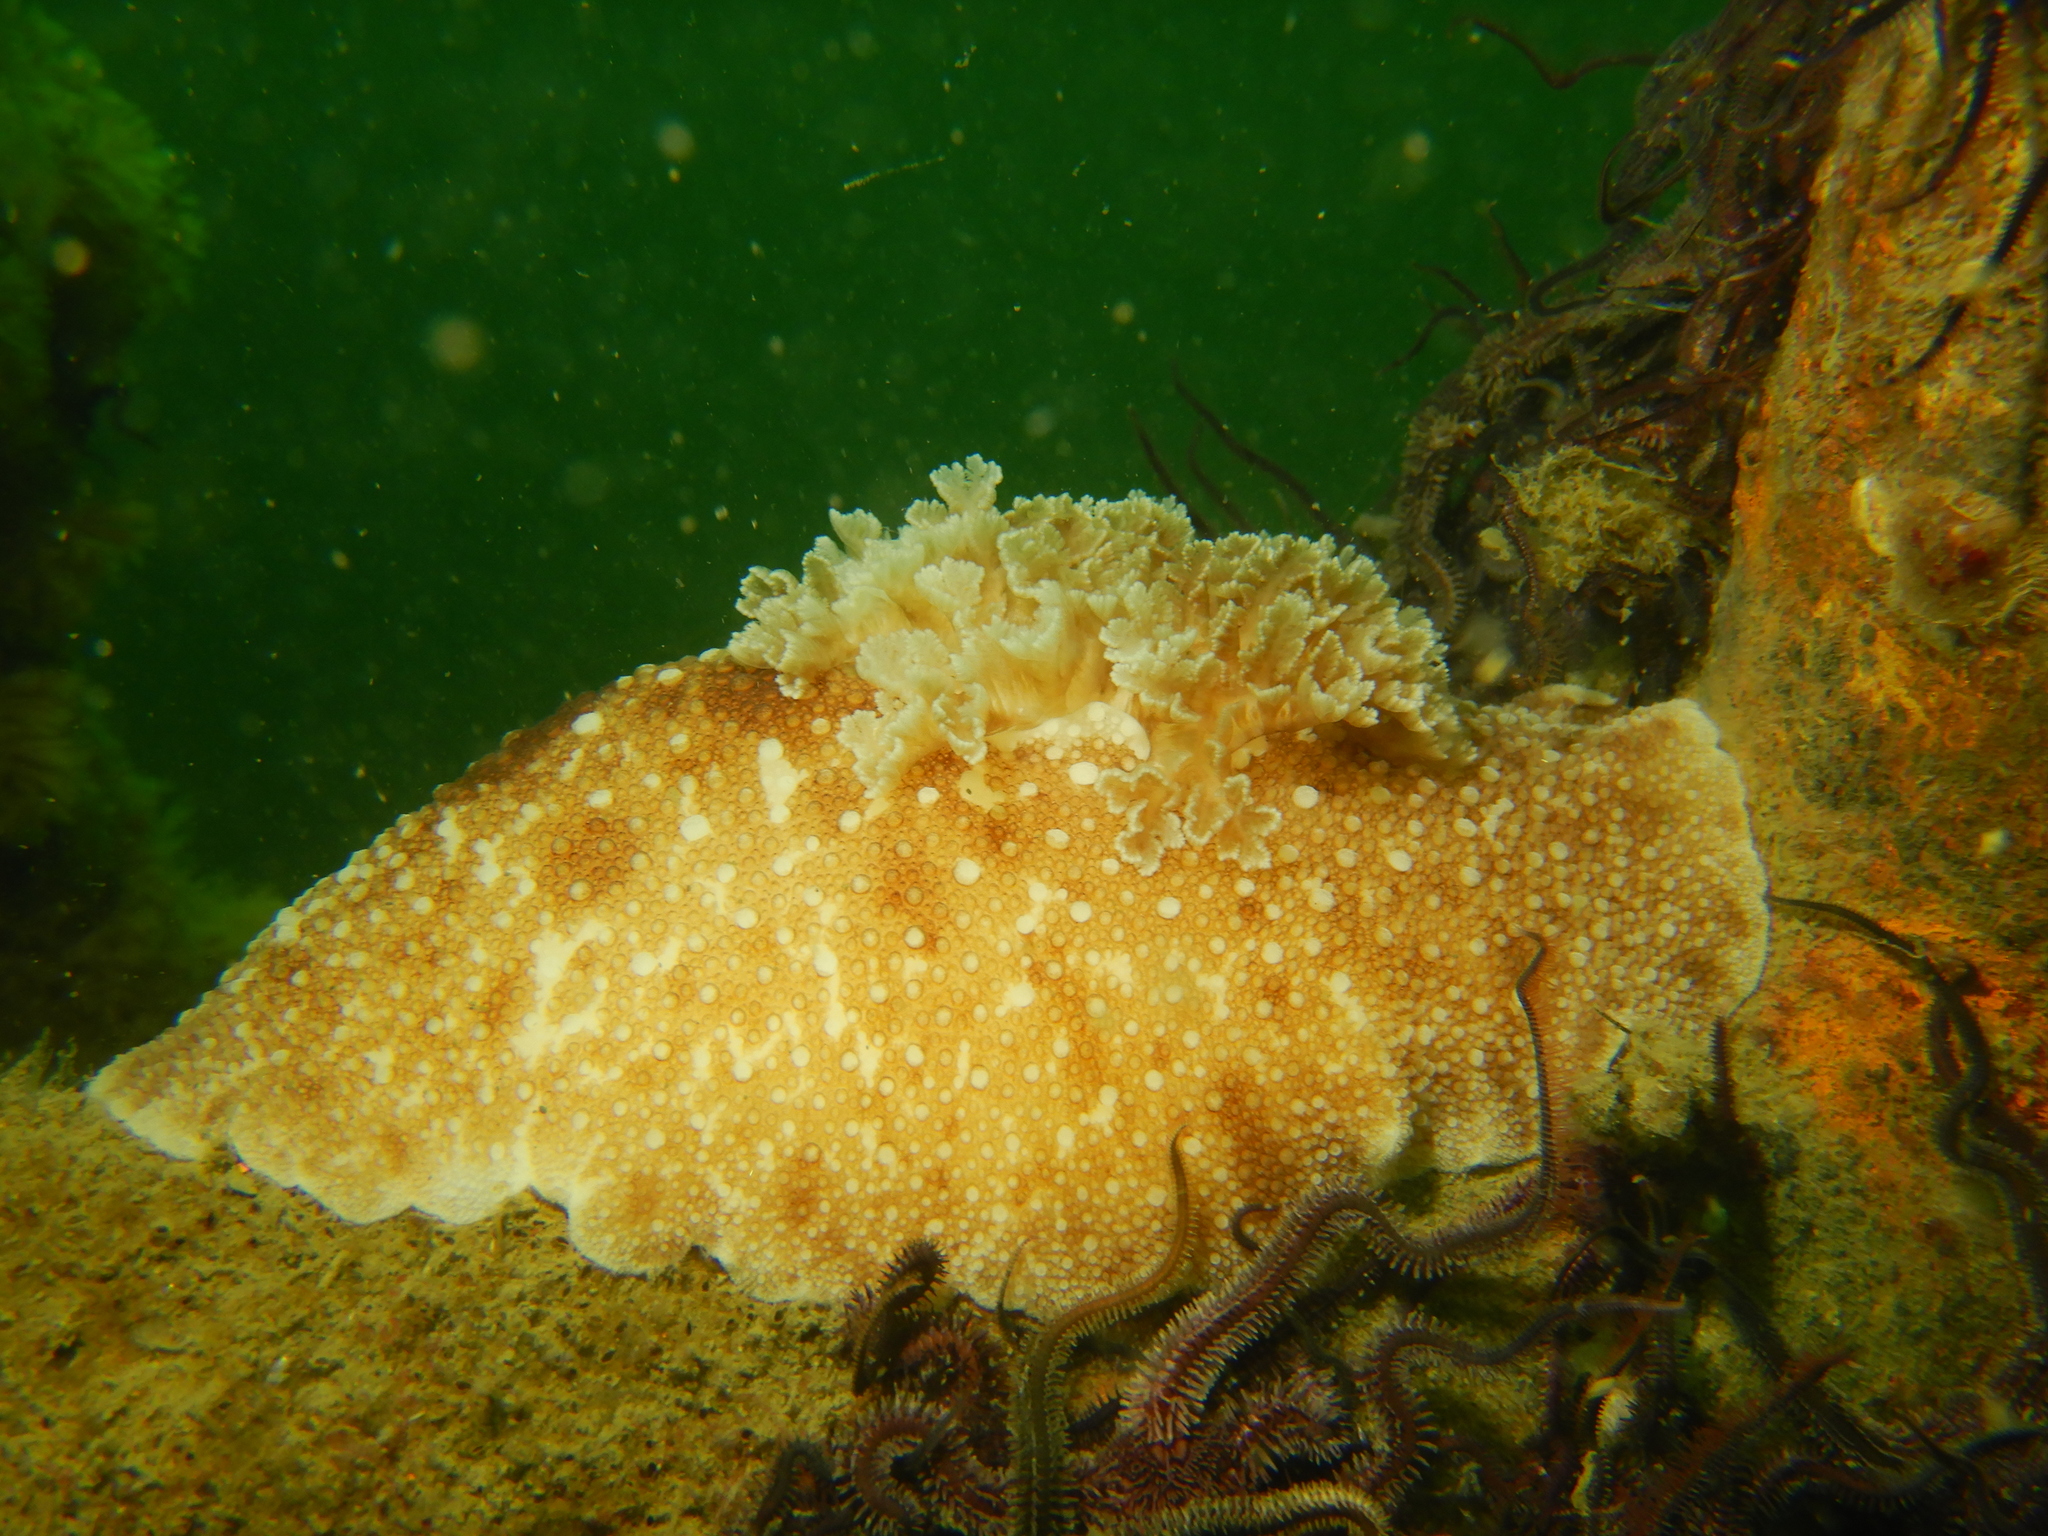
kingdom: Animalia
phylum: Mollusca
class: Gastropoda
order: Nudibranchia
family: Discodorididae
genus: Diaulula
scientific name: Diaulula variolata
